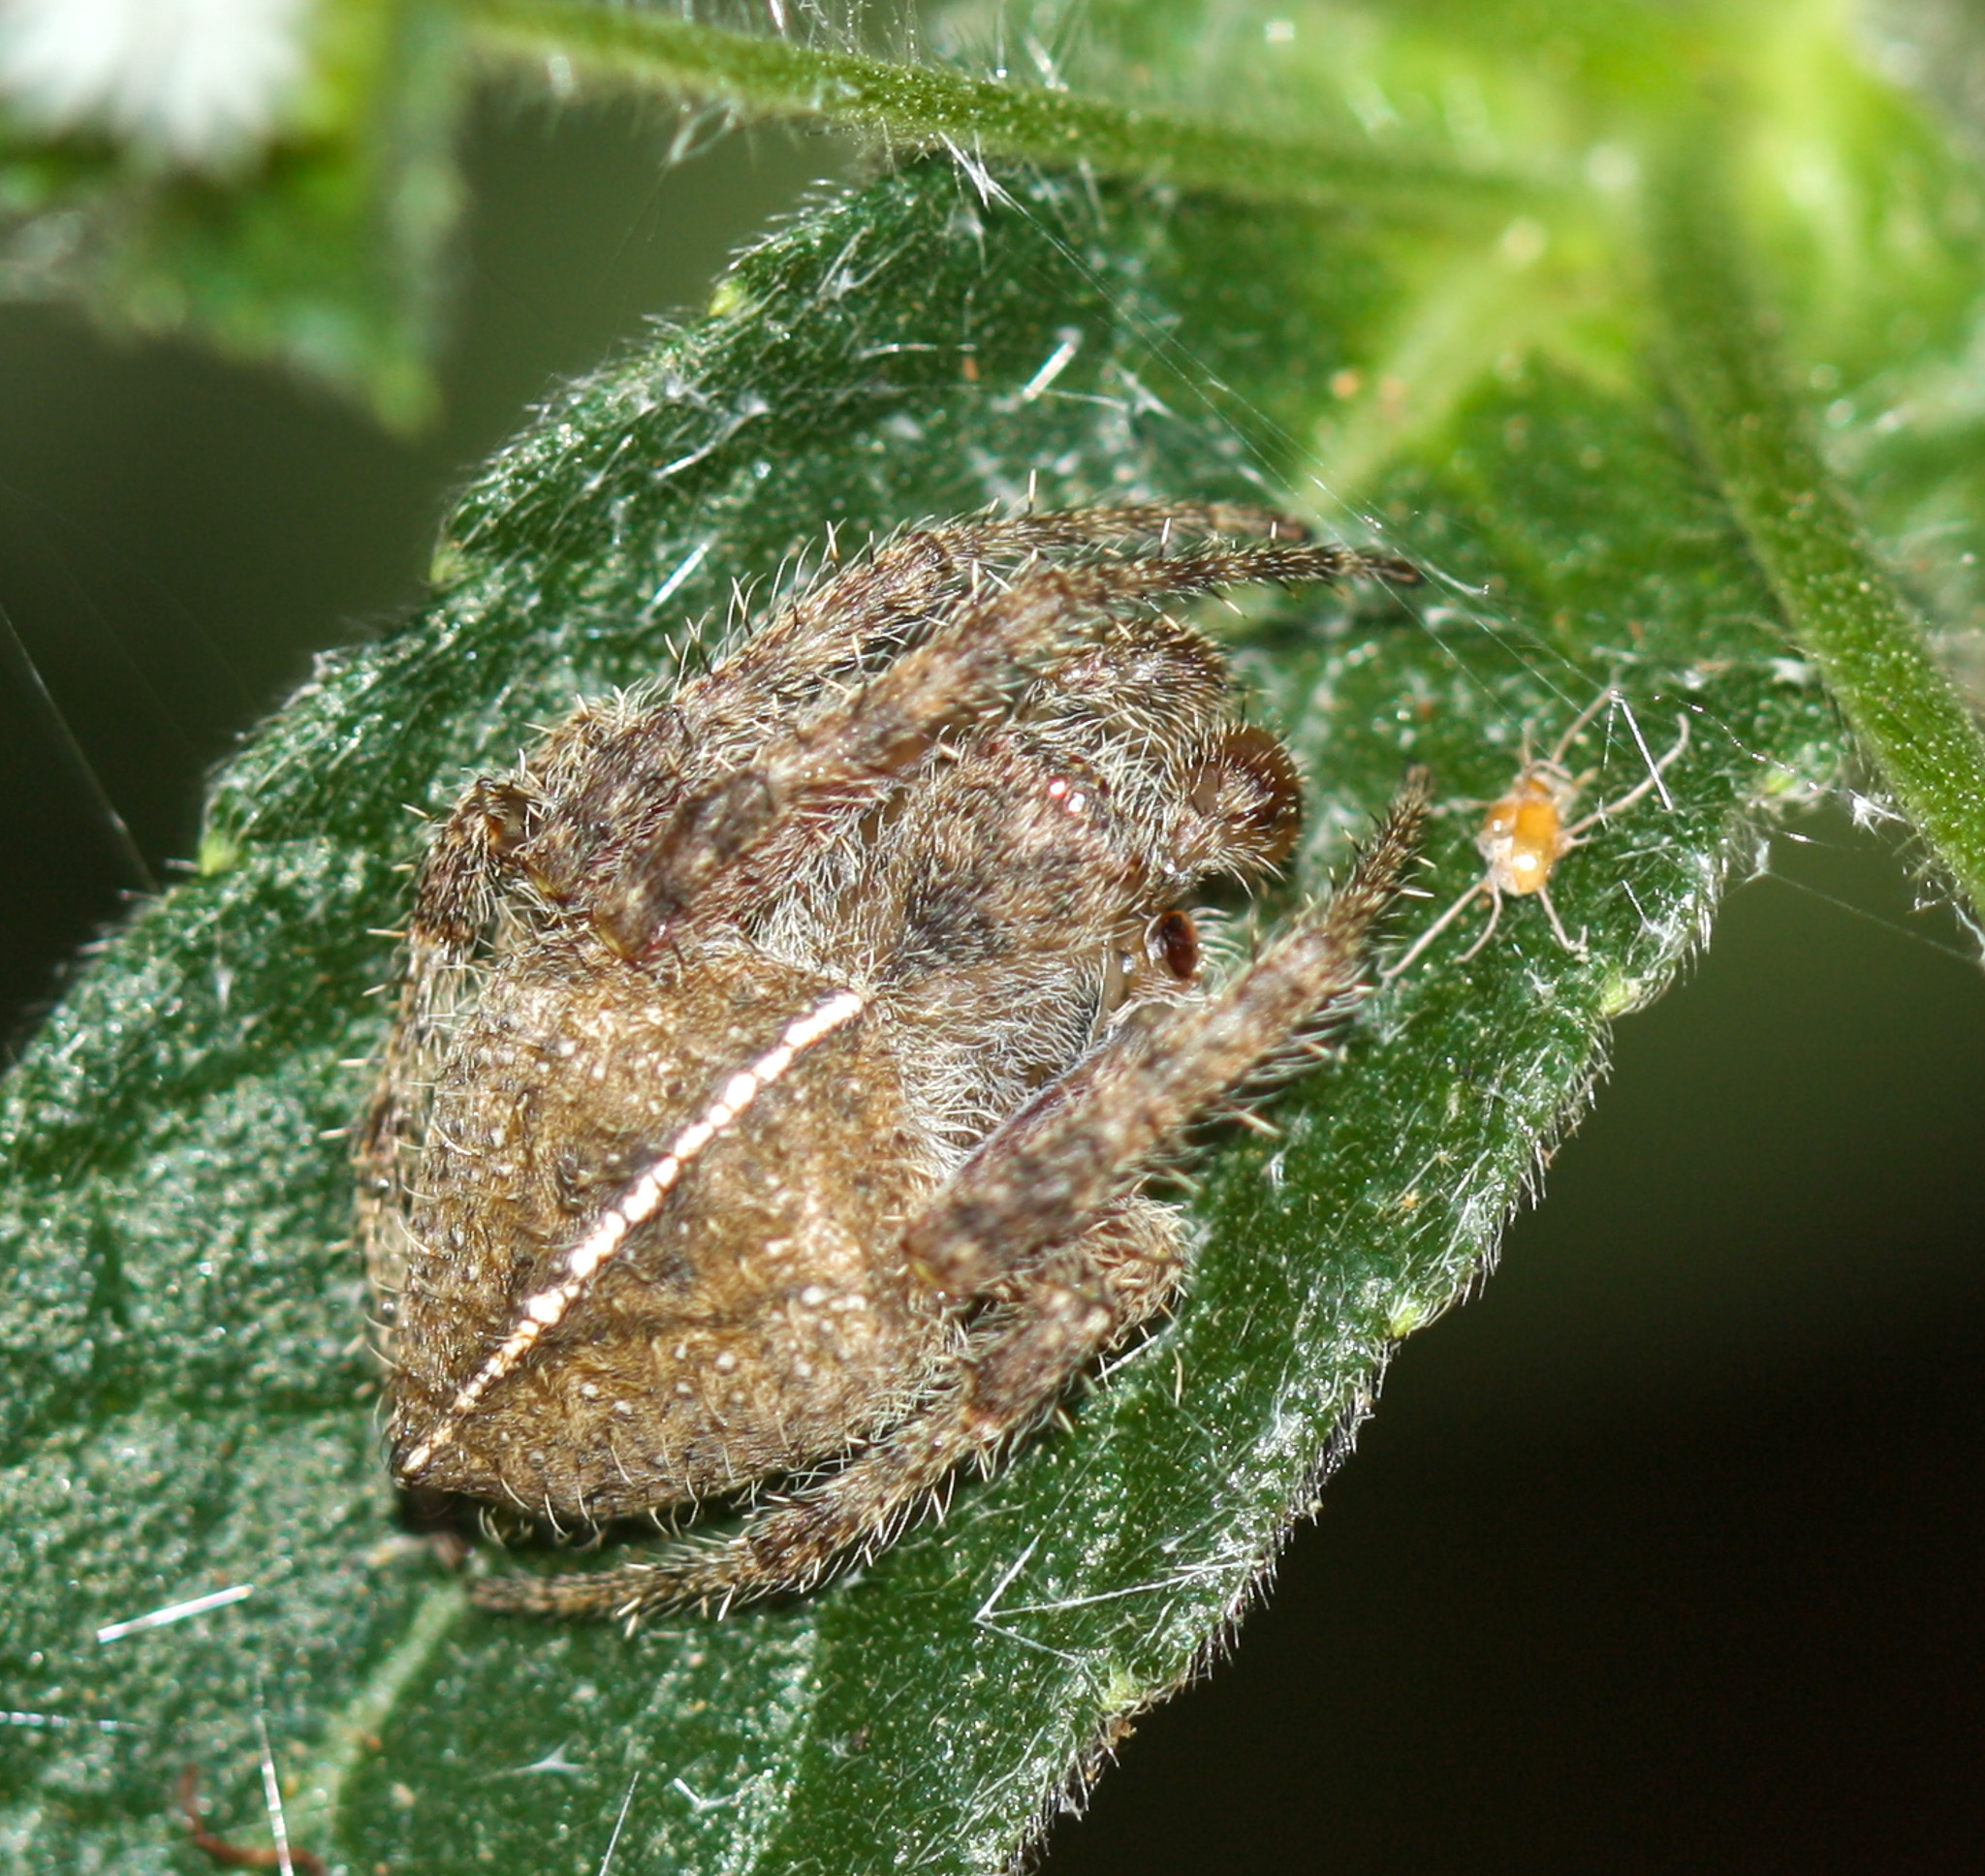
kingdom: Animalia
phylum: Arthropoda
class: Arachnida
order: Araneae
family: Araneidae
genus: Eriophora
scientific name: Eriophora edax
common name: Orb weavers
